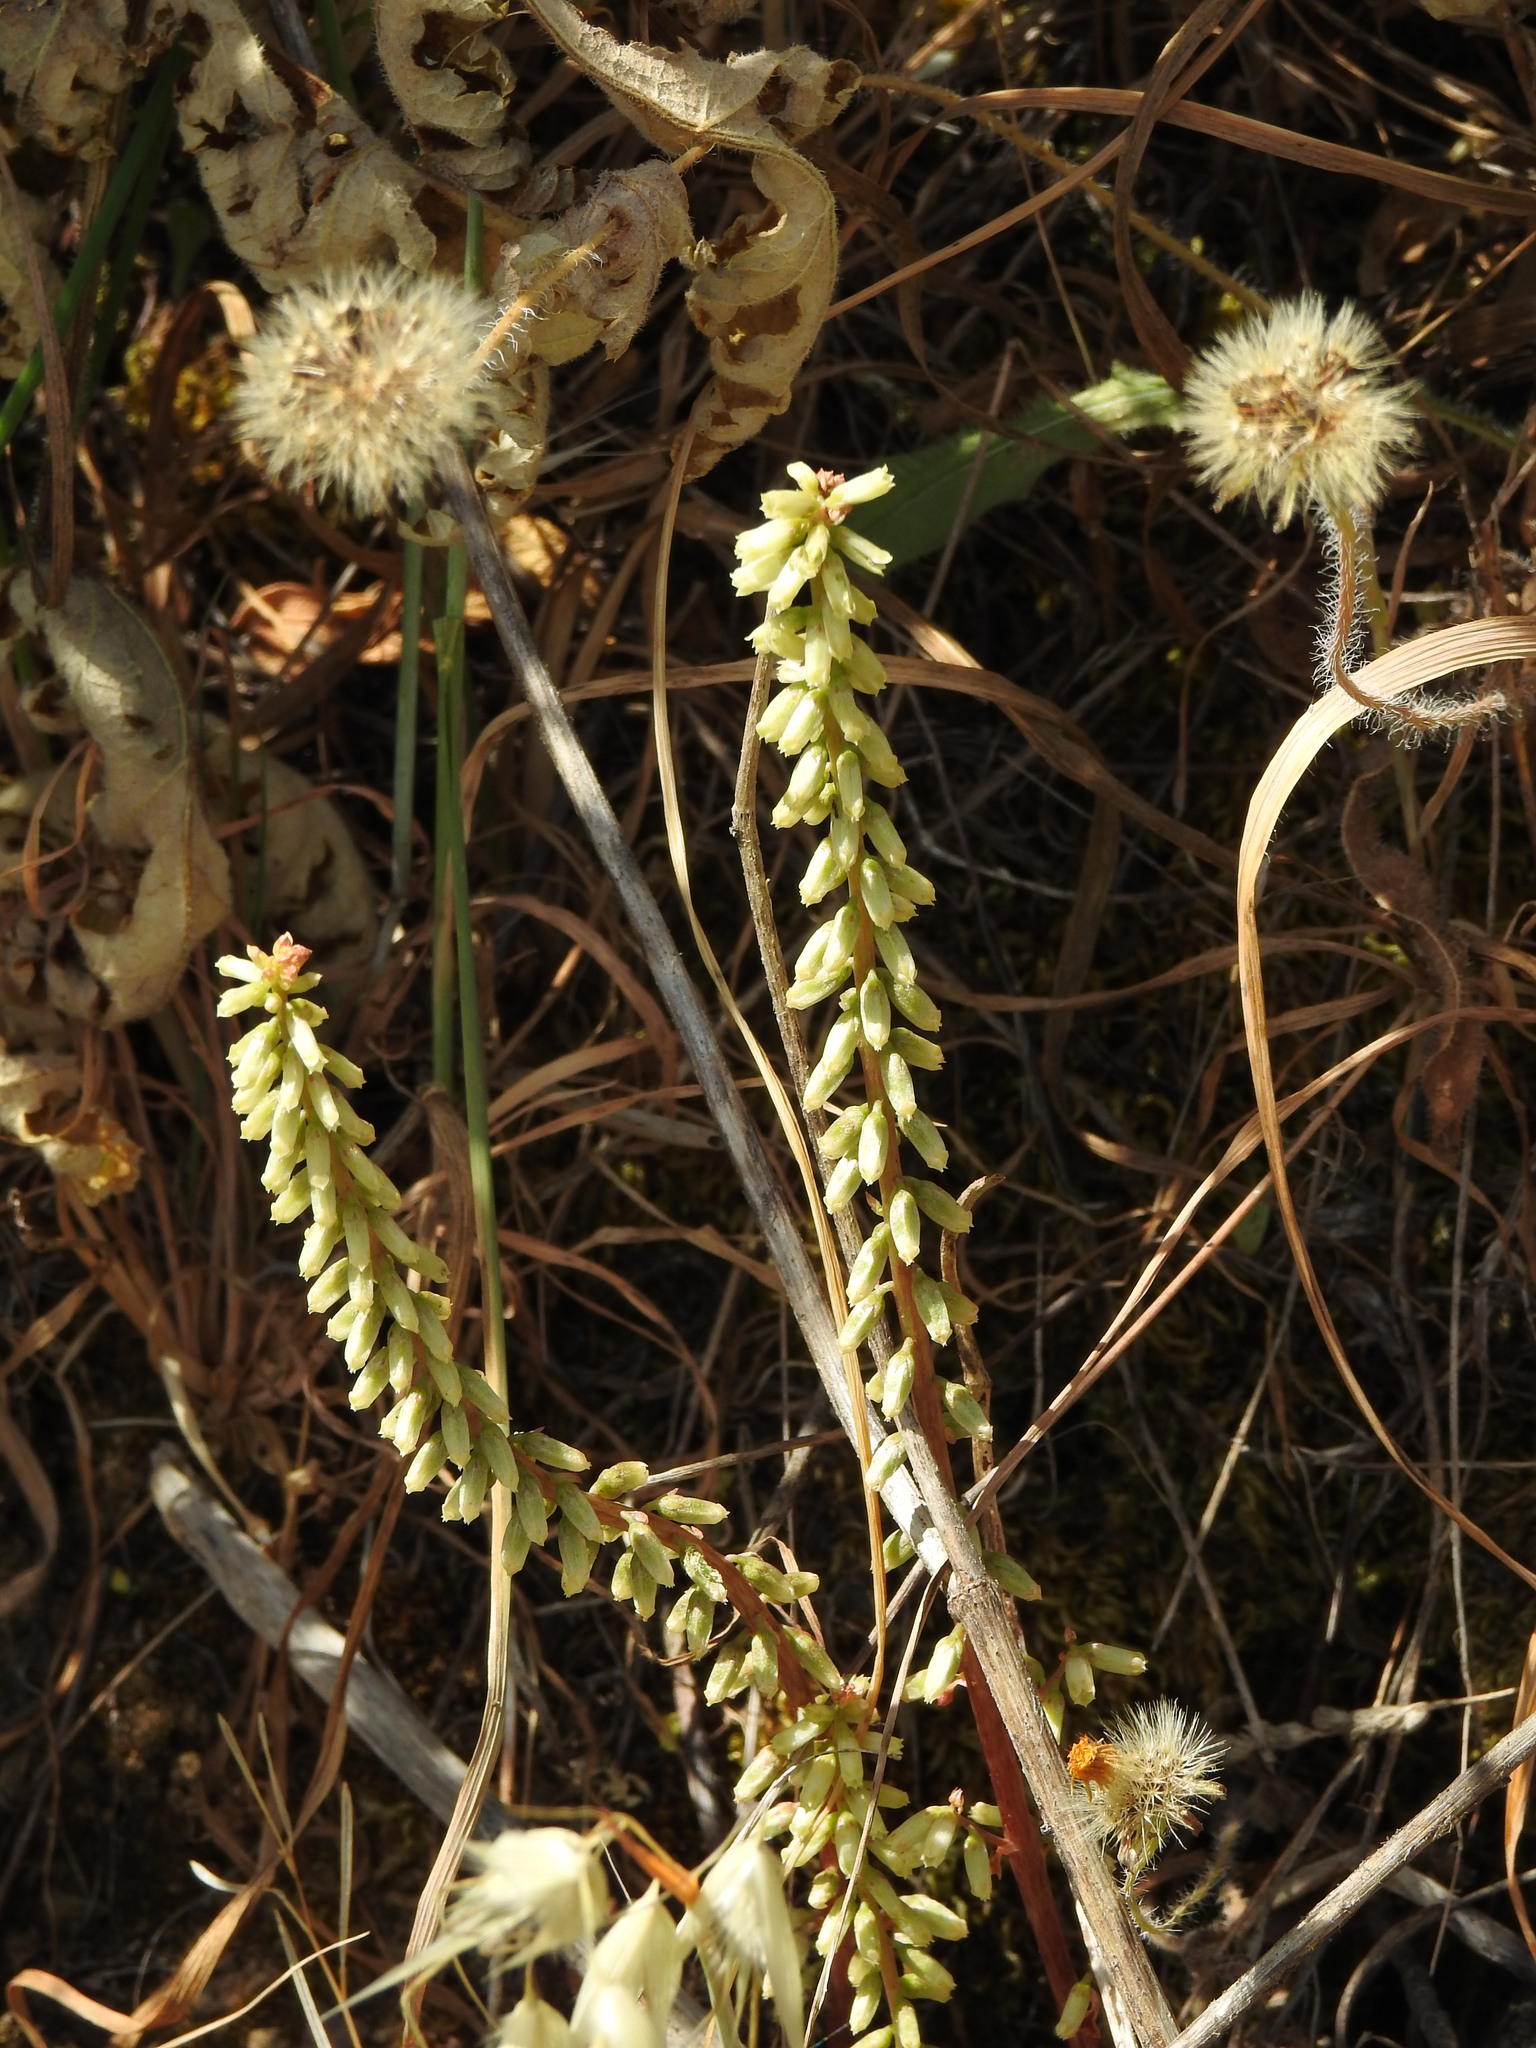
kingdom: Plantae
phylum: Tracheophyta
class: Magnoliopsida
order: Saxifragales
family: Crassulaceae
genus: Umbilicus
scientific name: Umbilicus rupestris
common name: Navelwort
